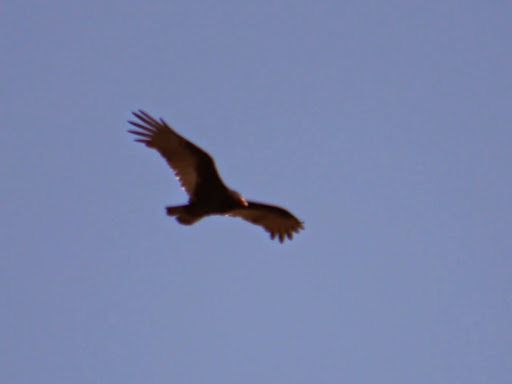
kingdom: Animalia
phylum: Chordata
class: Aves
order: Accipitriformes
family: Cathartidae
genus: Cathartes
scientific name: Cathartes aura
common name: Turkey vulture
